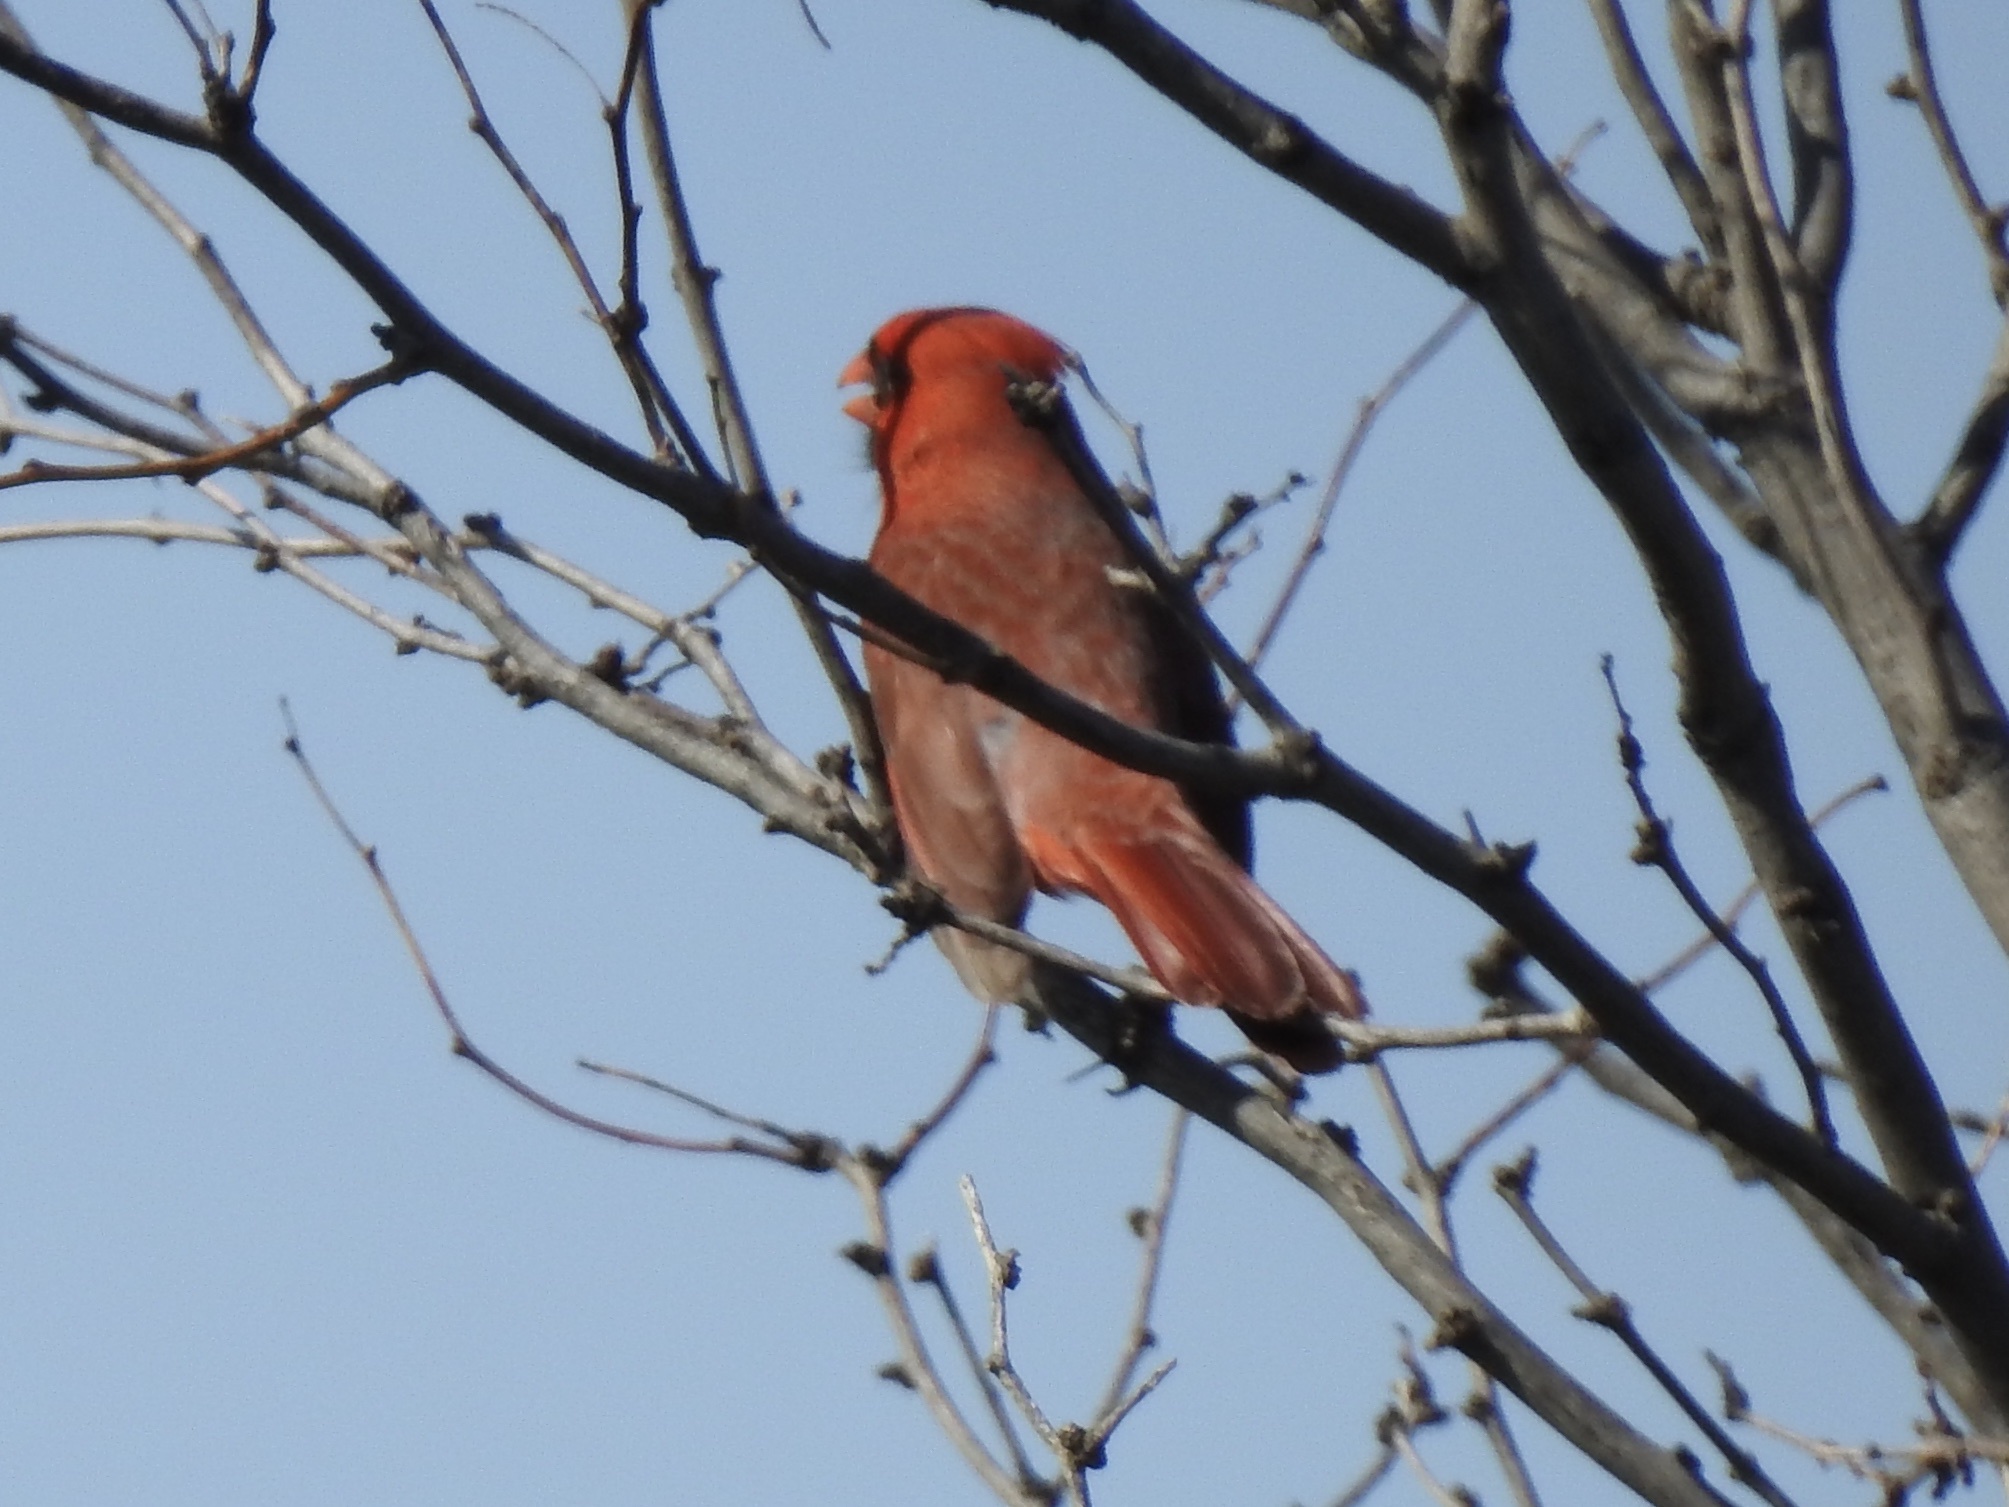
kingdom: Animalia
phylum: Chordata
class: Aves
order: Passeriformes
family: Cardinalidae
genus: Cardinalis
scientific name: Cardinalis cardinalis
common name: Northern cardinal
